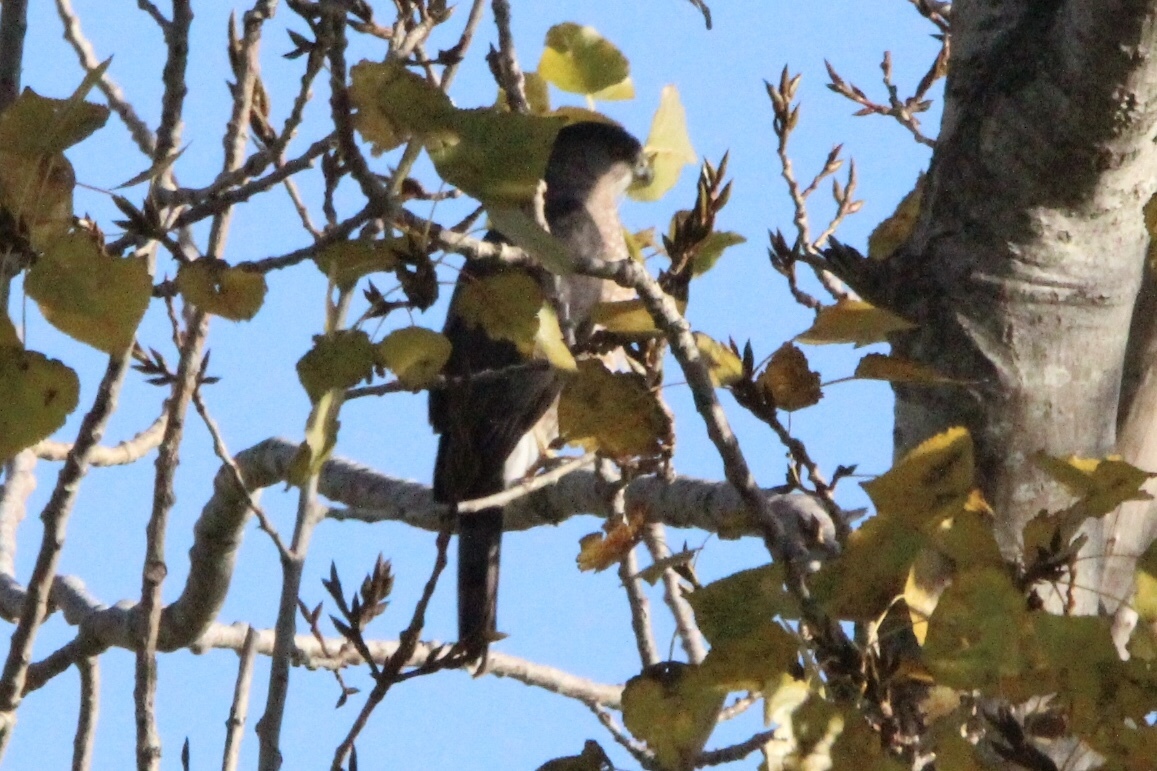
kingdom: Animalia
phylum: Chordata
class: Aves
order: Accipitriformes
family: Accipitridae
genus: Accipiter
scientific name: Accipiter cooperii
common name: Cooper's hawk
